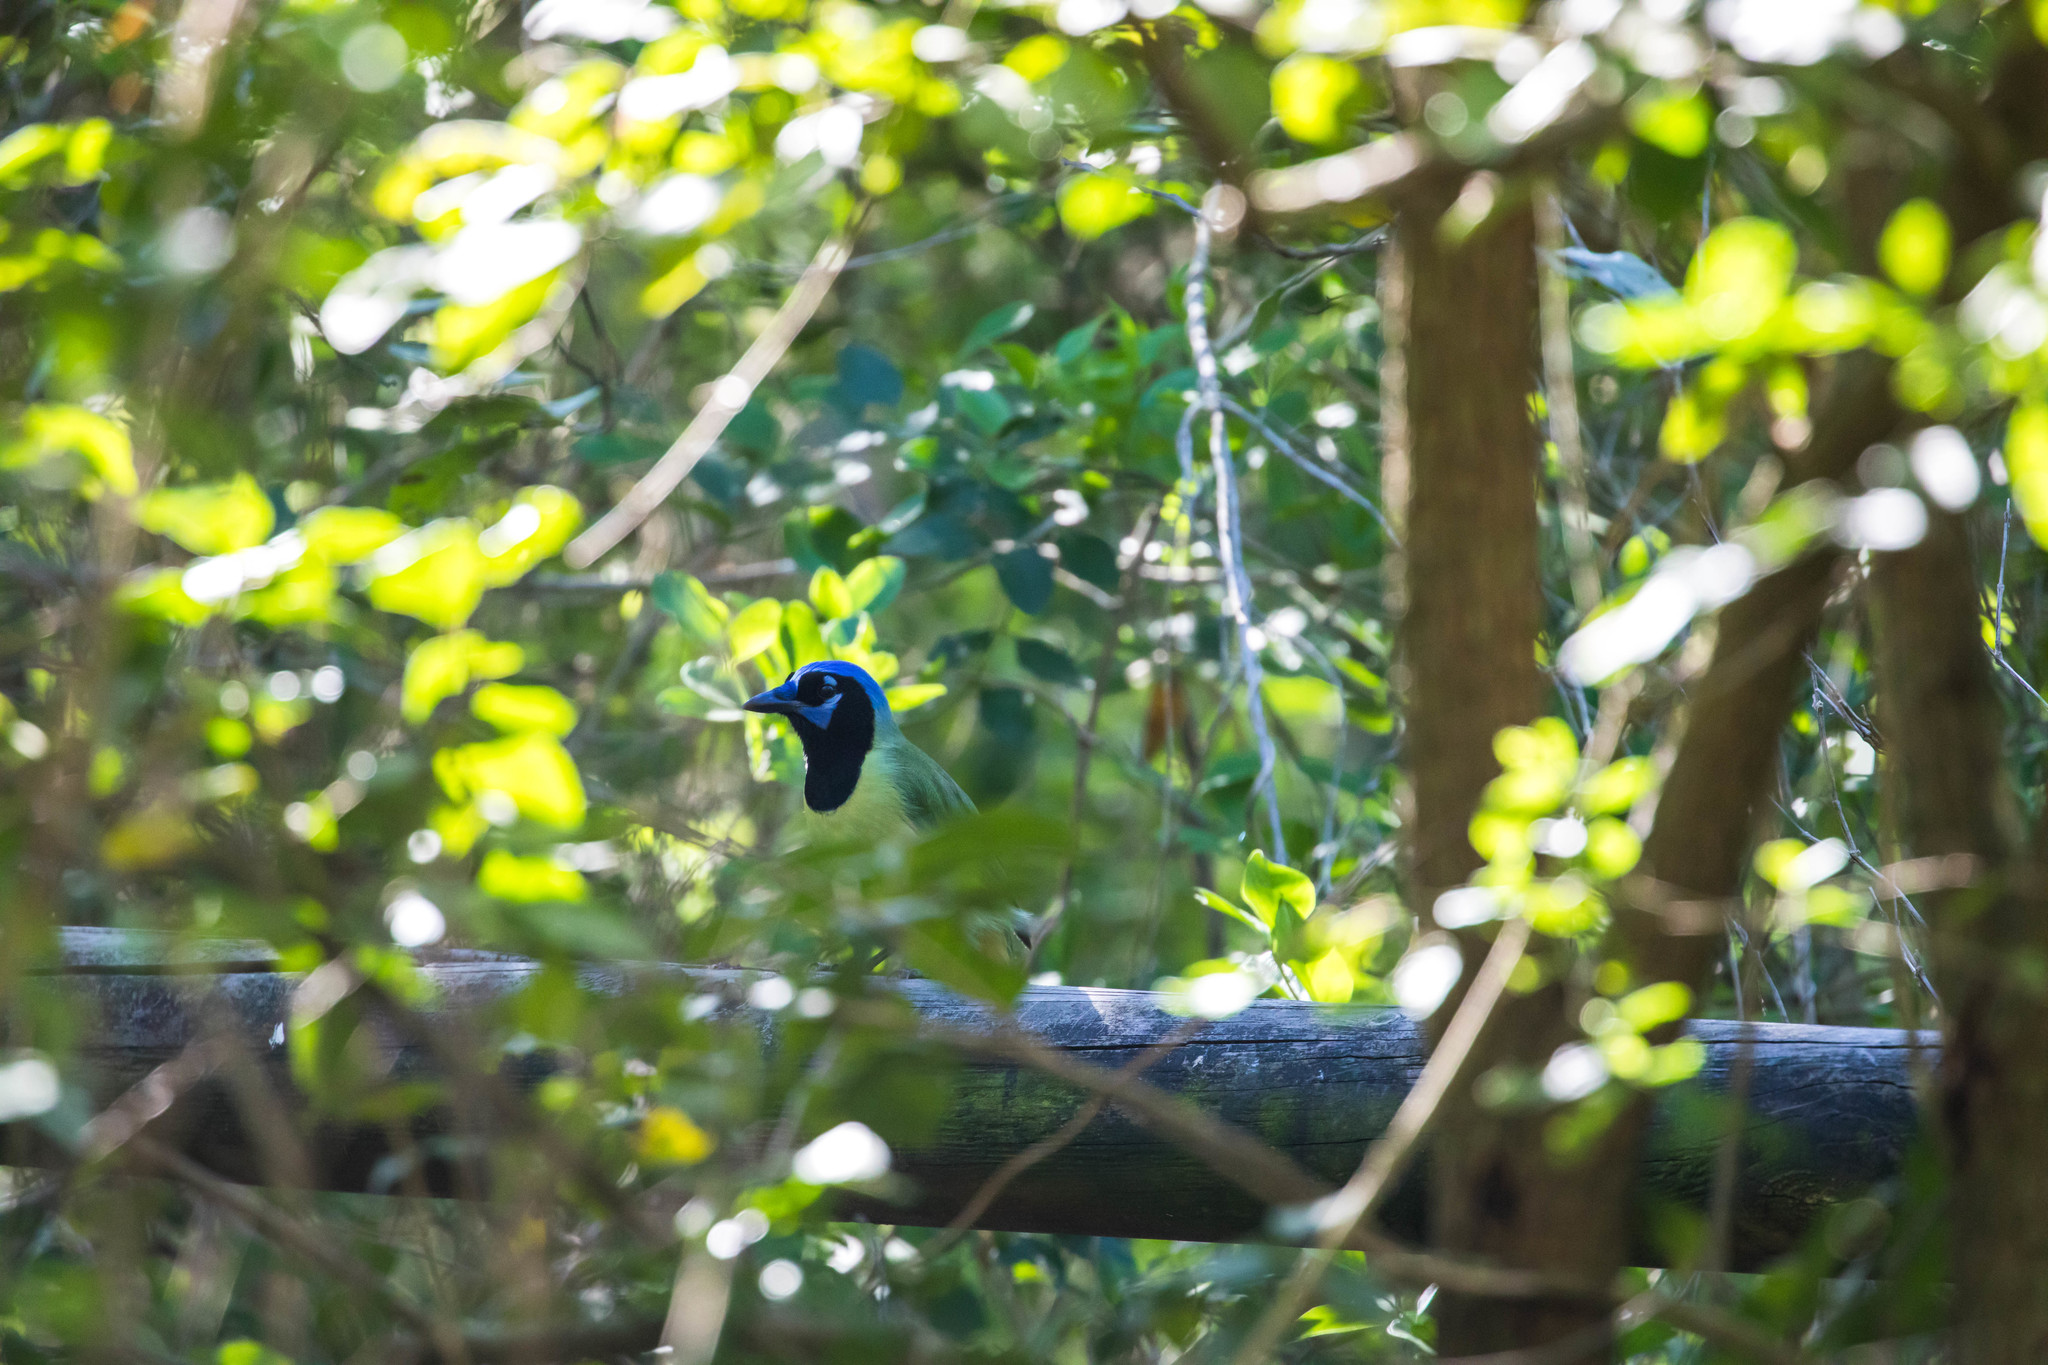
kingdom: Animalia
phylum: Chordata
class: Aves
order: Passeriformes
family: Corvidae
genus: Cyanocorax
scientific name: Cyanocorax yncas
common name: Green jay
